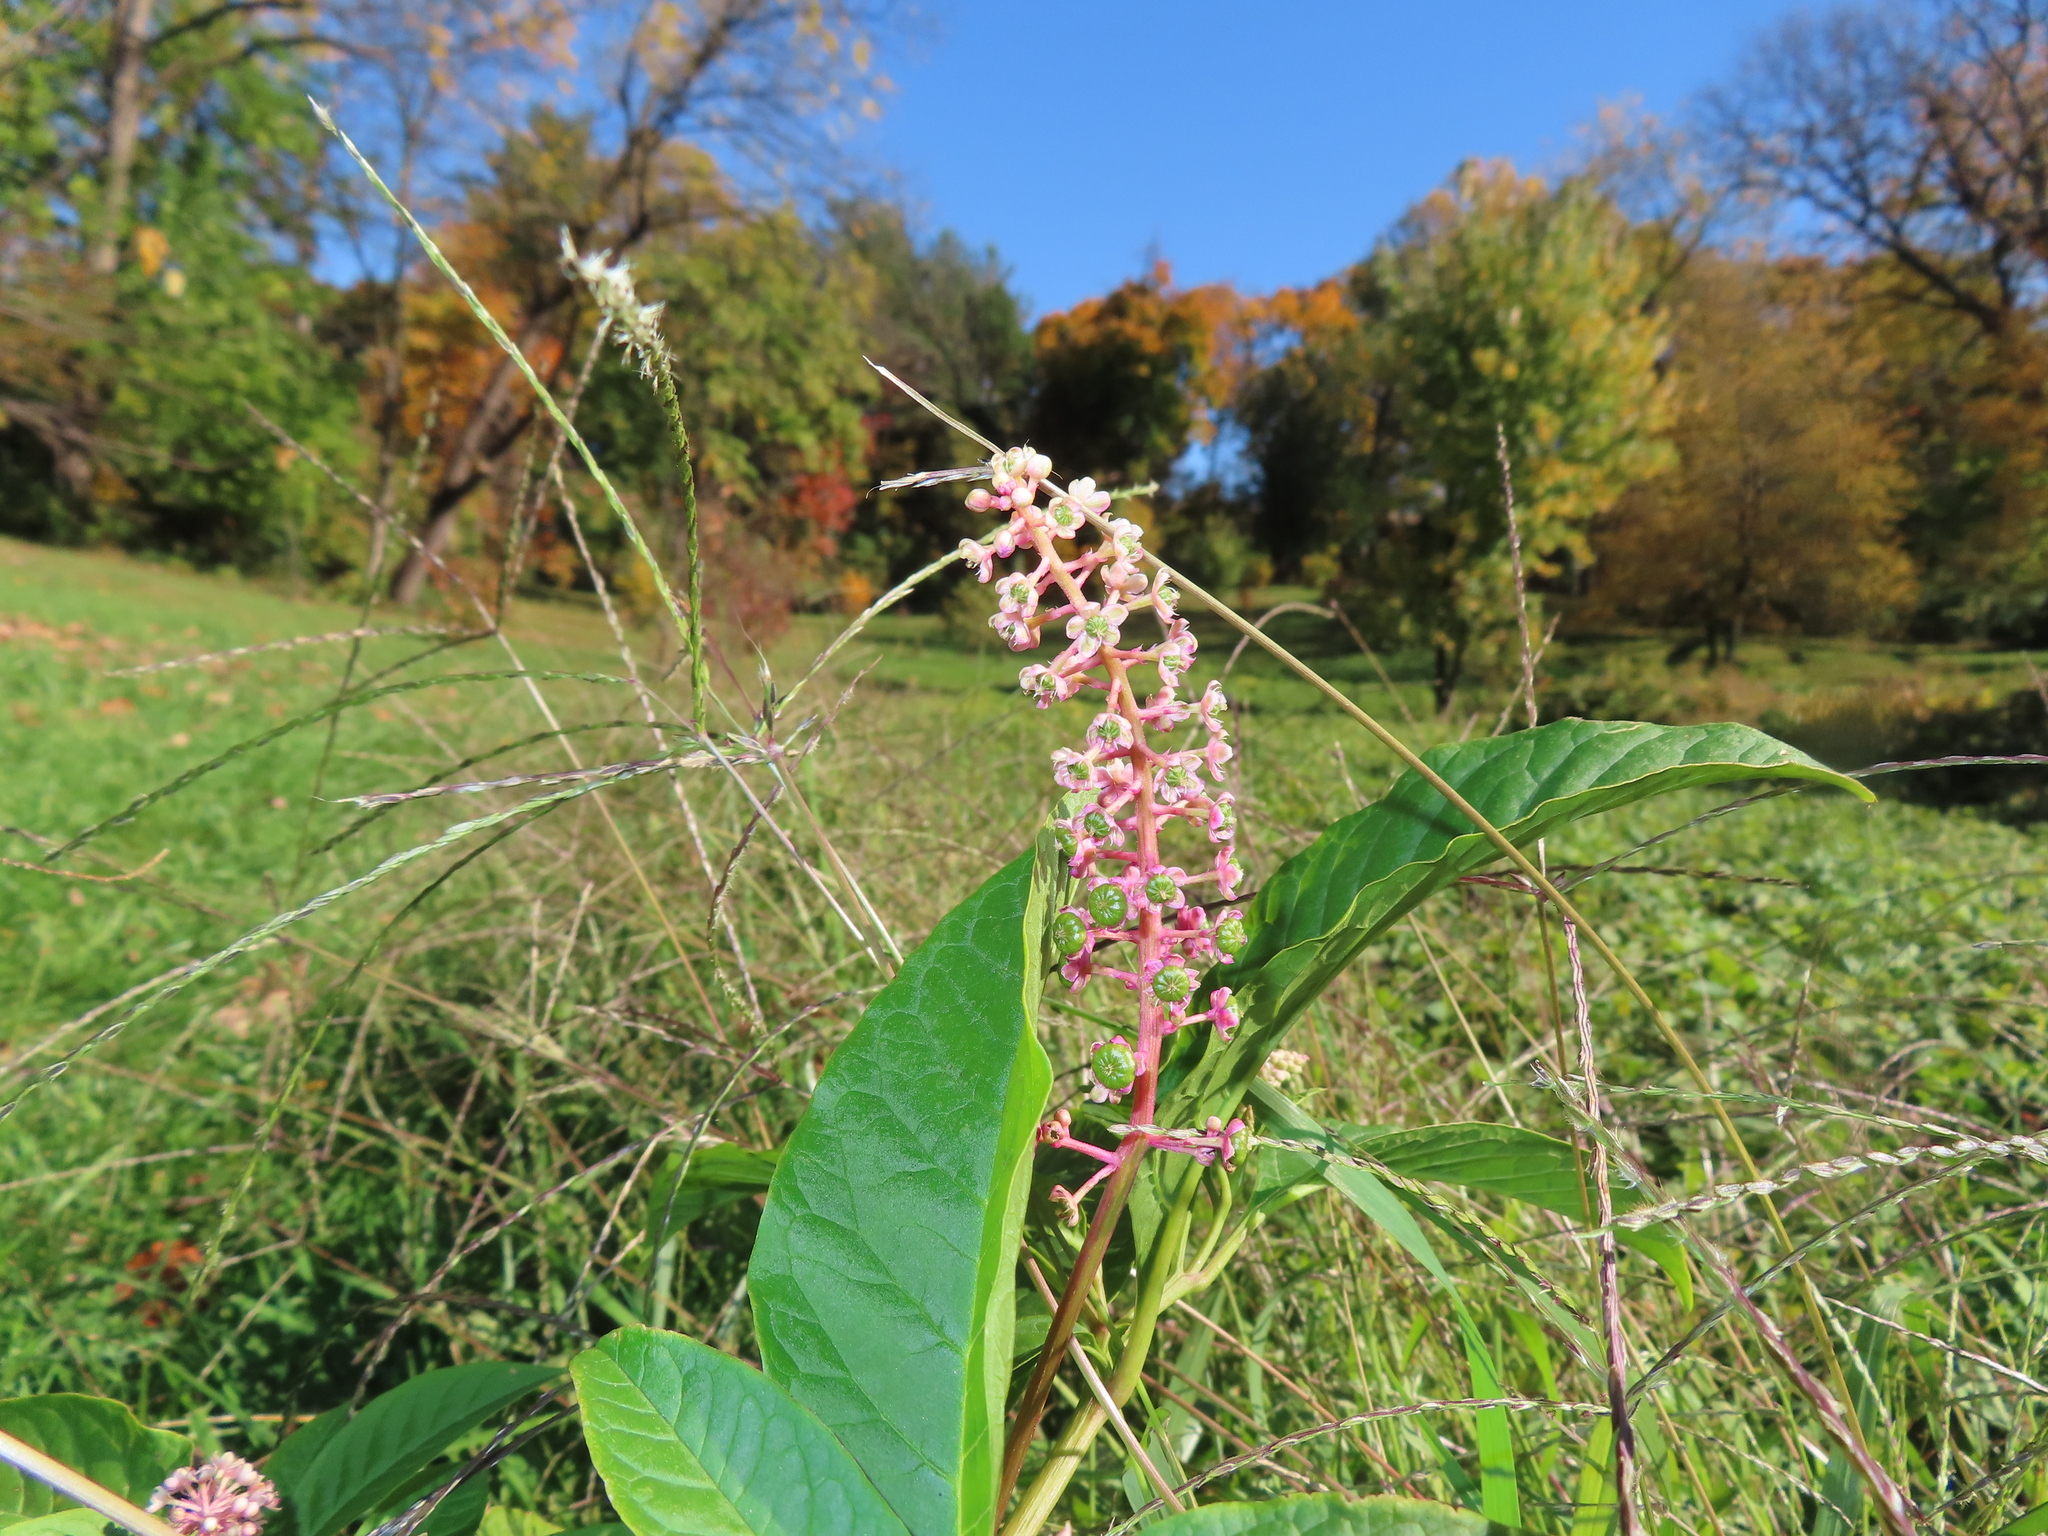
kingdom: Plantae
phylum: Tracheophyta
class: Magnoliopsida
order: Caryophyllales
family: Phytolaccaceae
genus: Phytolacca
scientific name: Phytolacca americana
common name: American pokeweed
